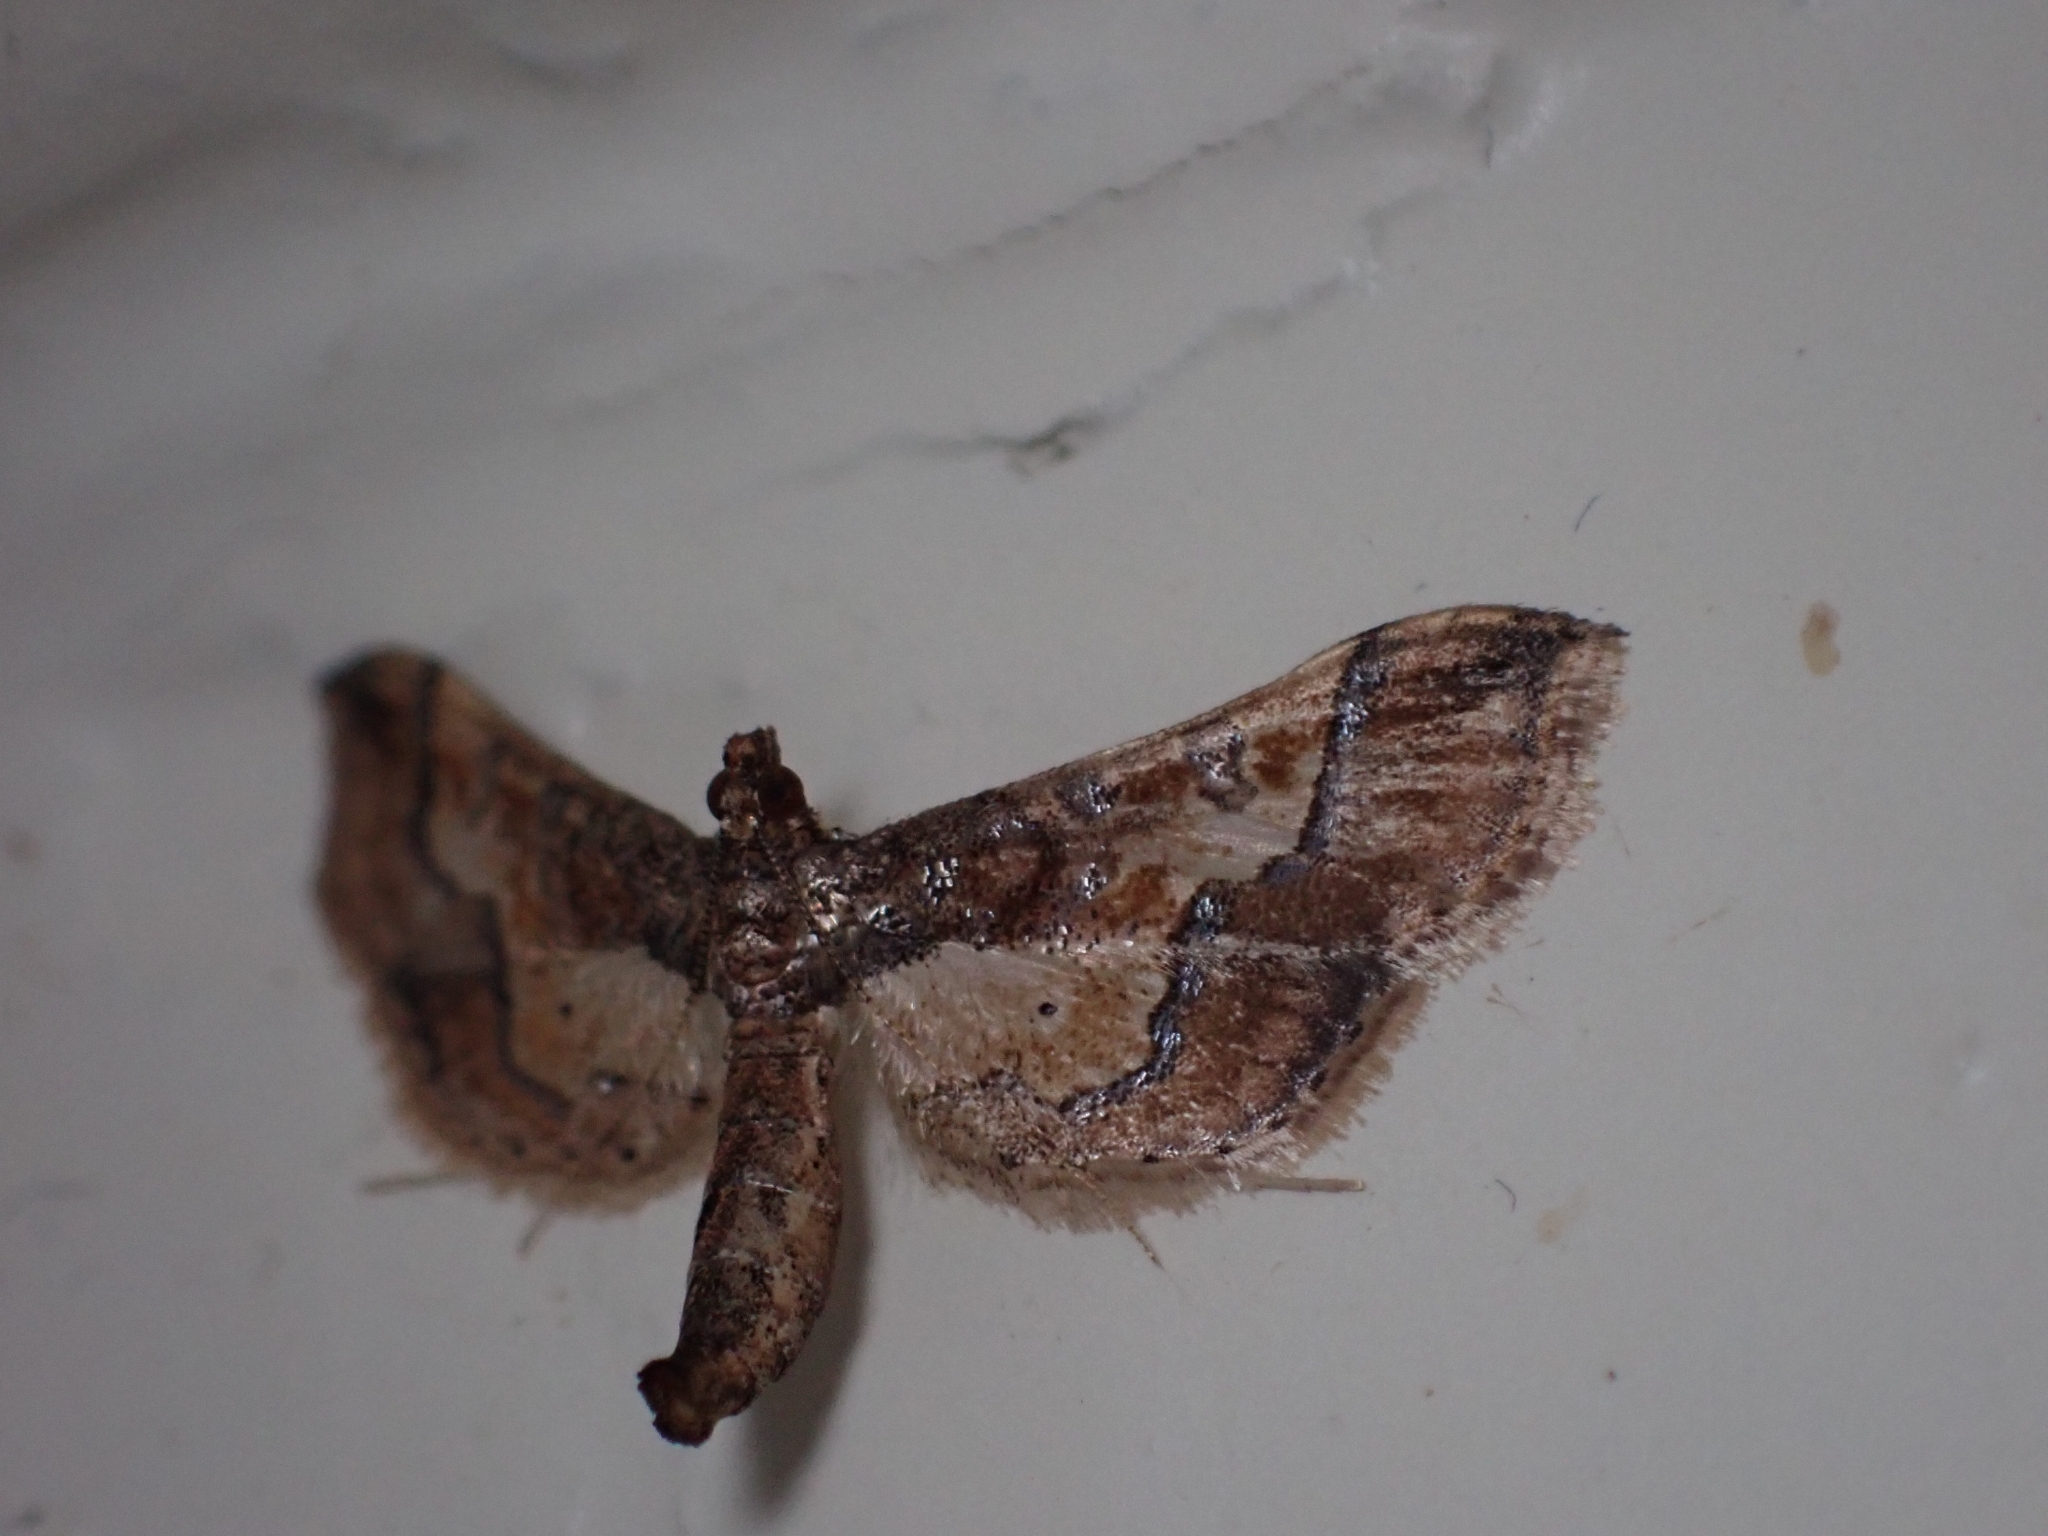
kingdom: Animalia
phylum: Arthropoda
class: Insecta
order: Lepidoptera
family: Crambidae
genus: Hydriris
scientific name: Hydriris ornatalis
